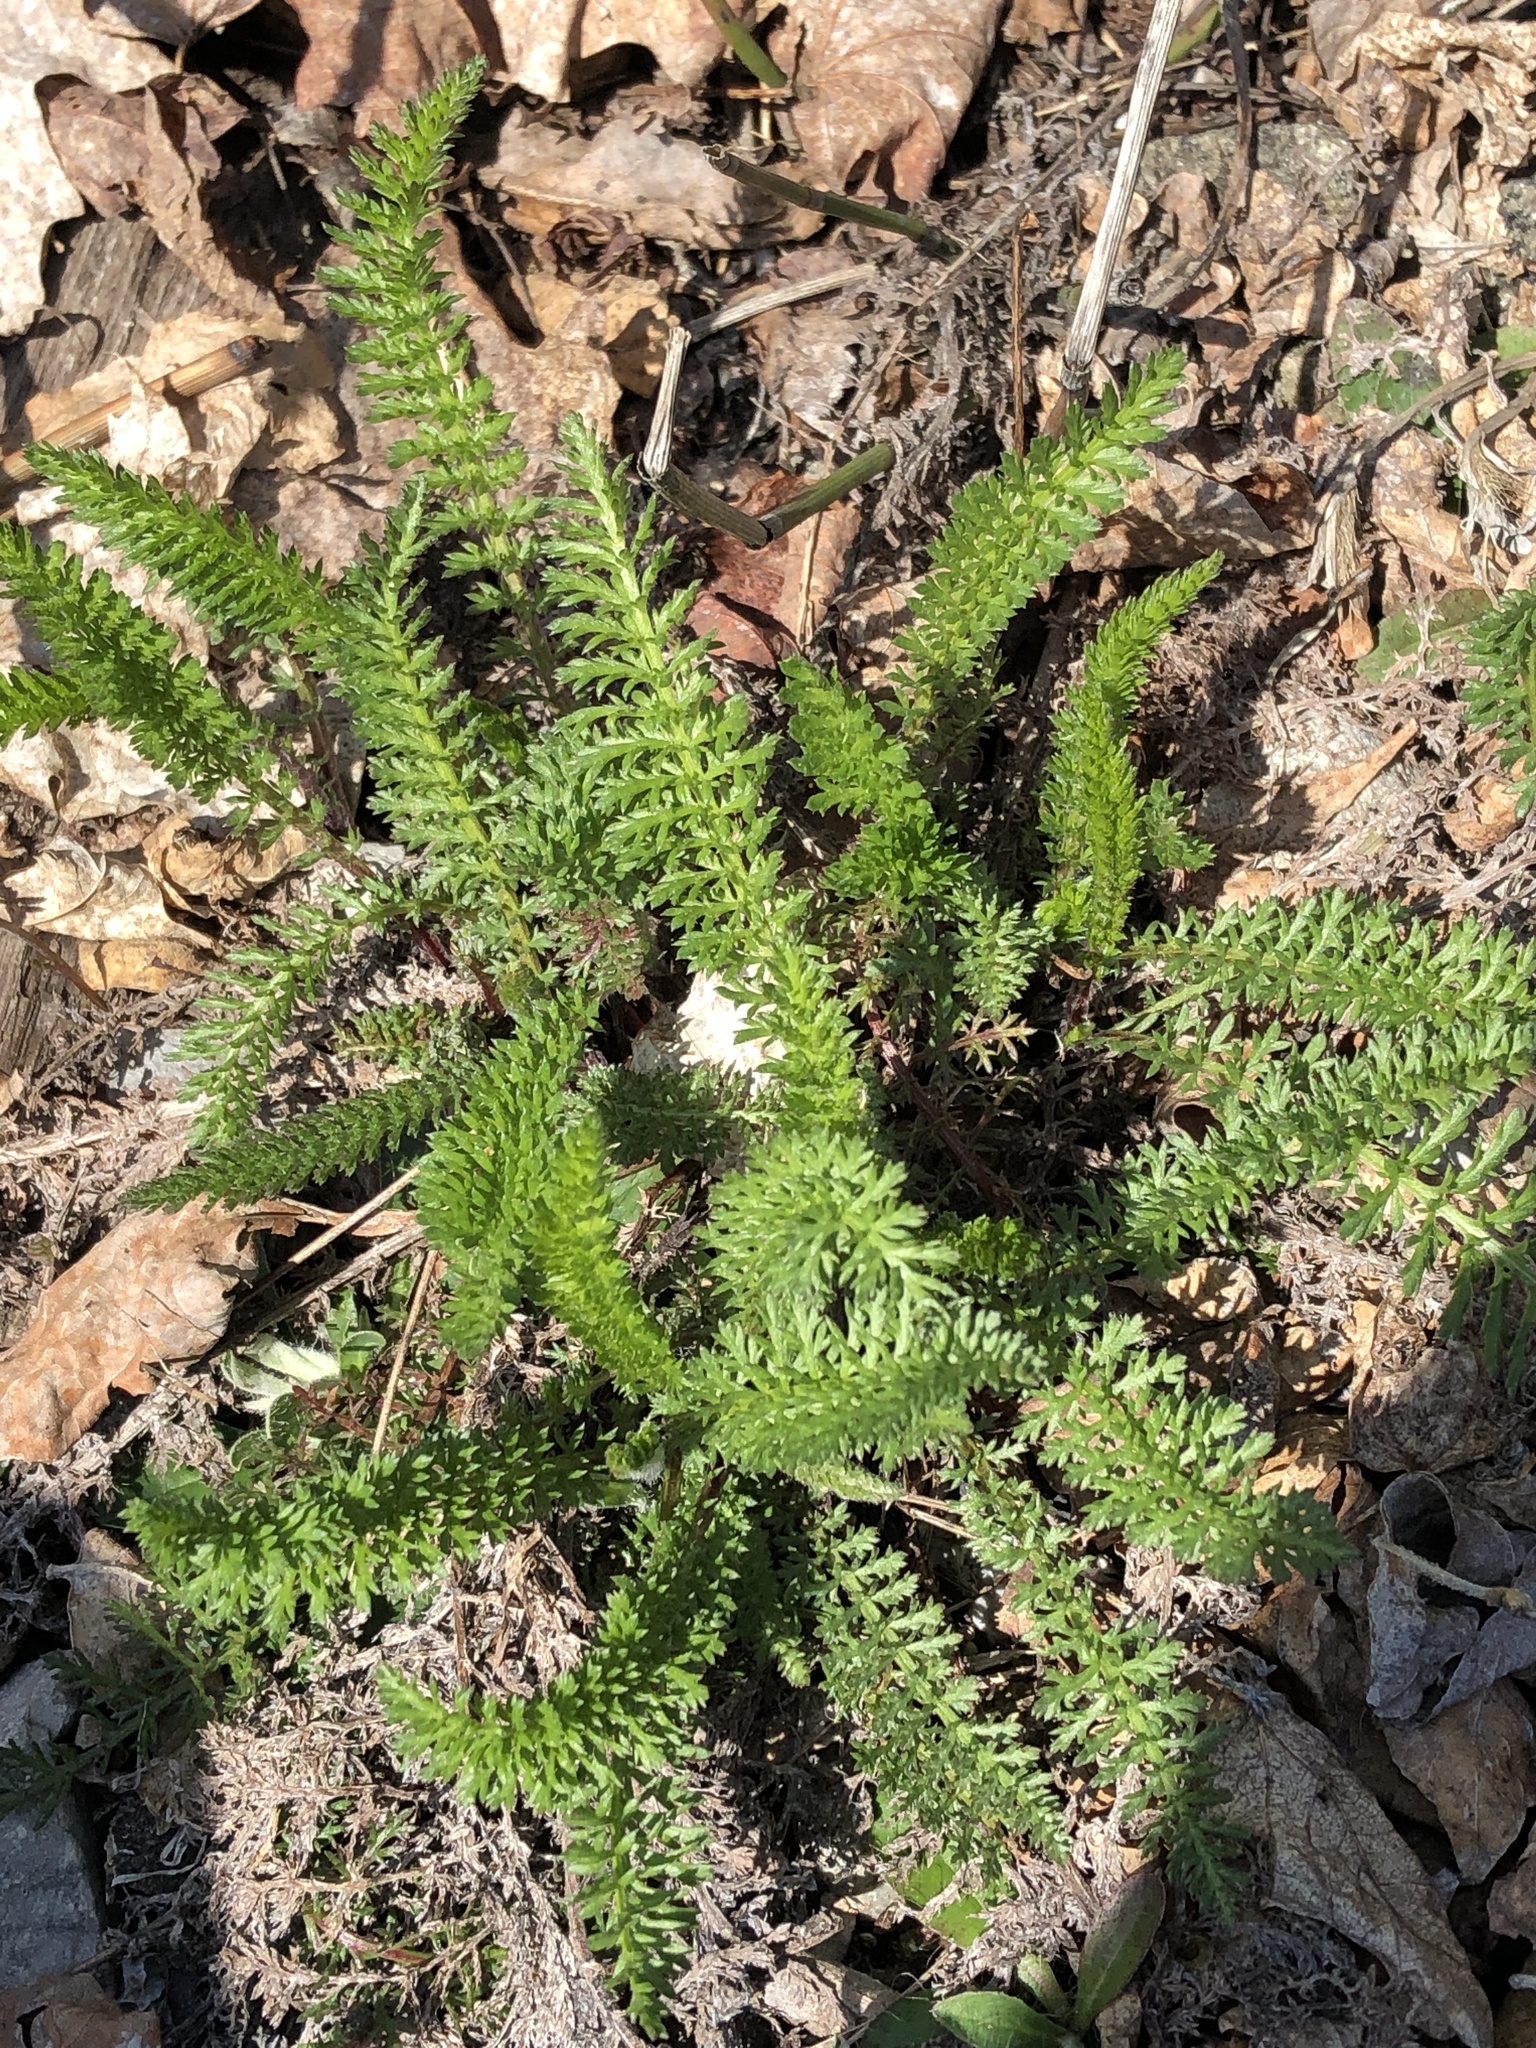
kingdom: Plantae
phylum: Tracheophyta
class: Magnoliopsida
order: Asterales
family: Asteraceae
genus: Achillea
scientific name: Achillea millefolium
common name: Yarrow
